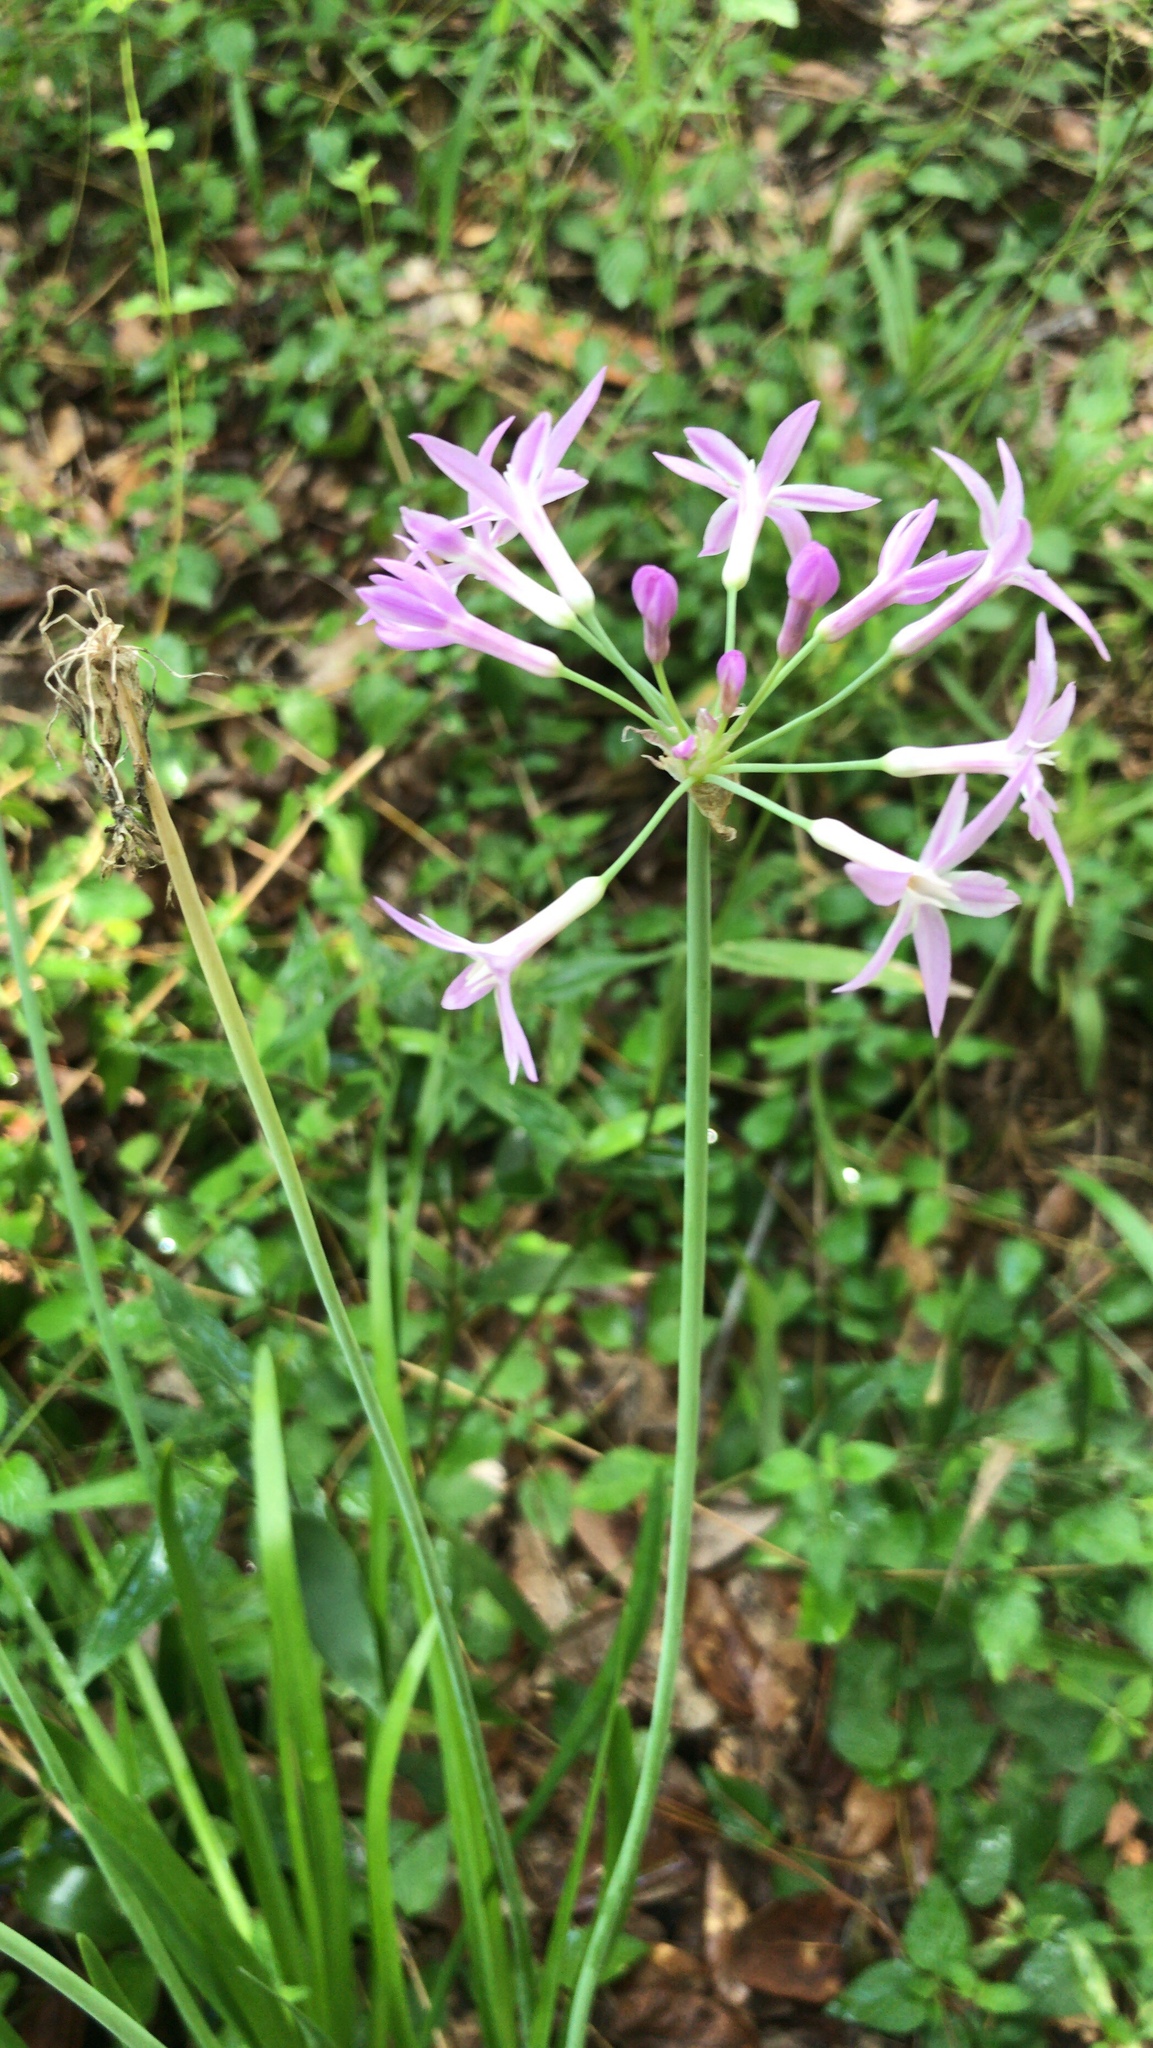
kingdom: Plantae
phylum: Tracheophyta
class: Liliopsida
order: Asparagales
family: Amaryllidaceae
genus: Tulbaghia
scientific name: Tulbaghia violacea
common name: Society garlic
